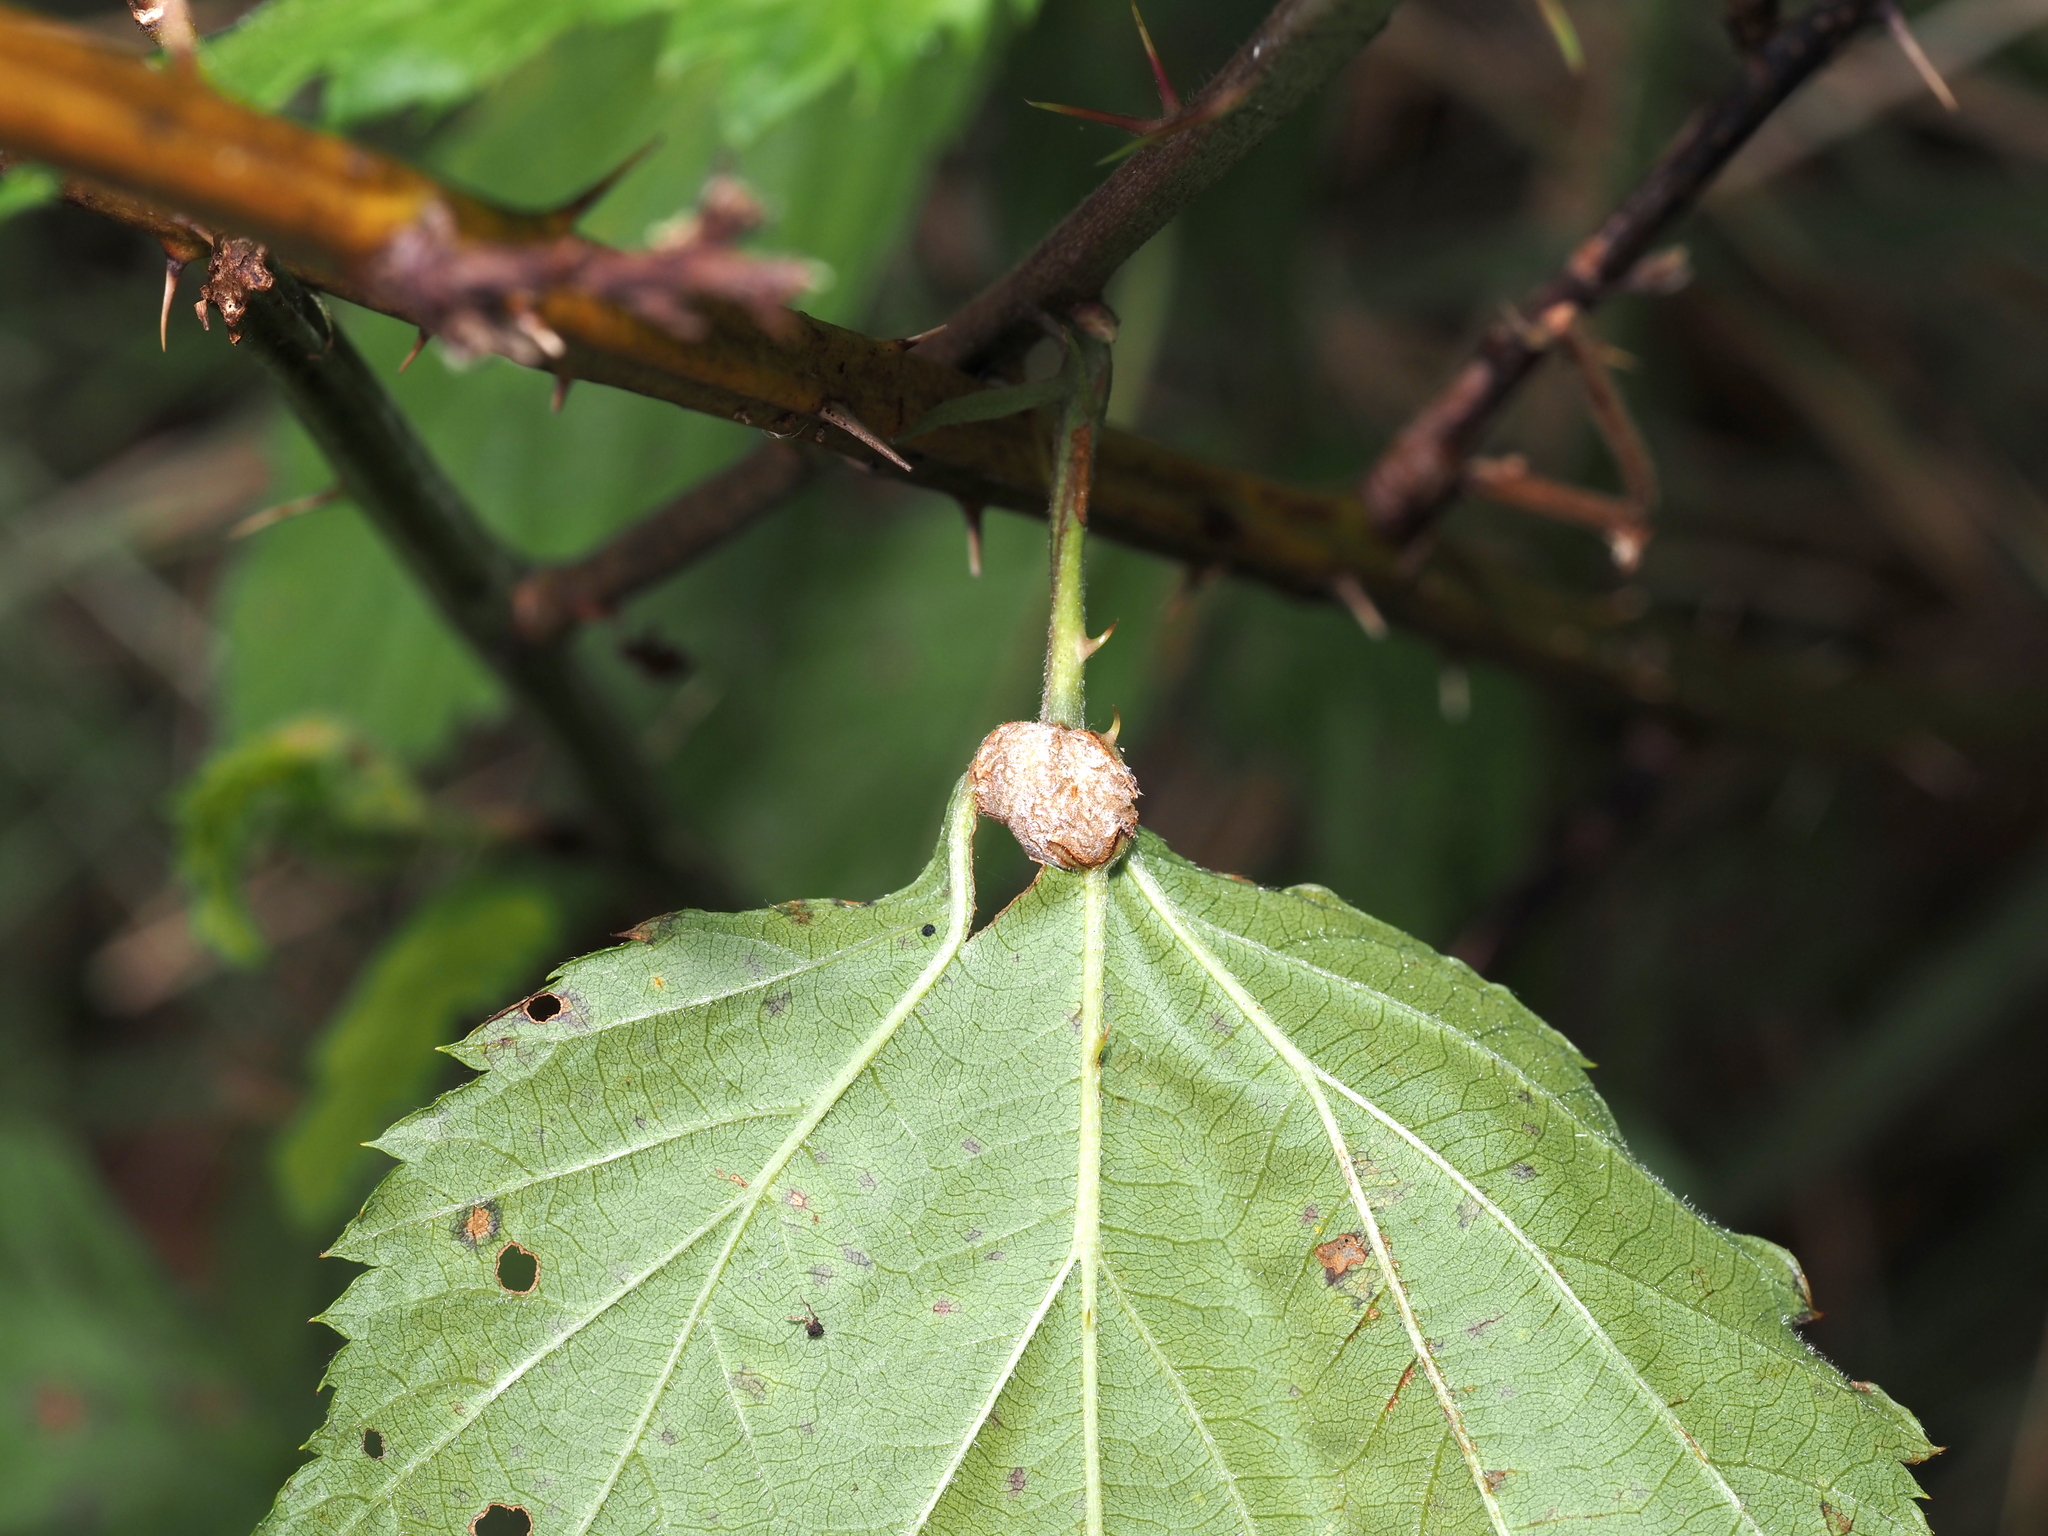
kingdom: Animalia
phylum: Arthropoda
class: Insecta
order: Diptera
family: Cecidomyiidae
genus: Neolasioptera
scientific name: Neolasioptera farinosa
